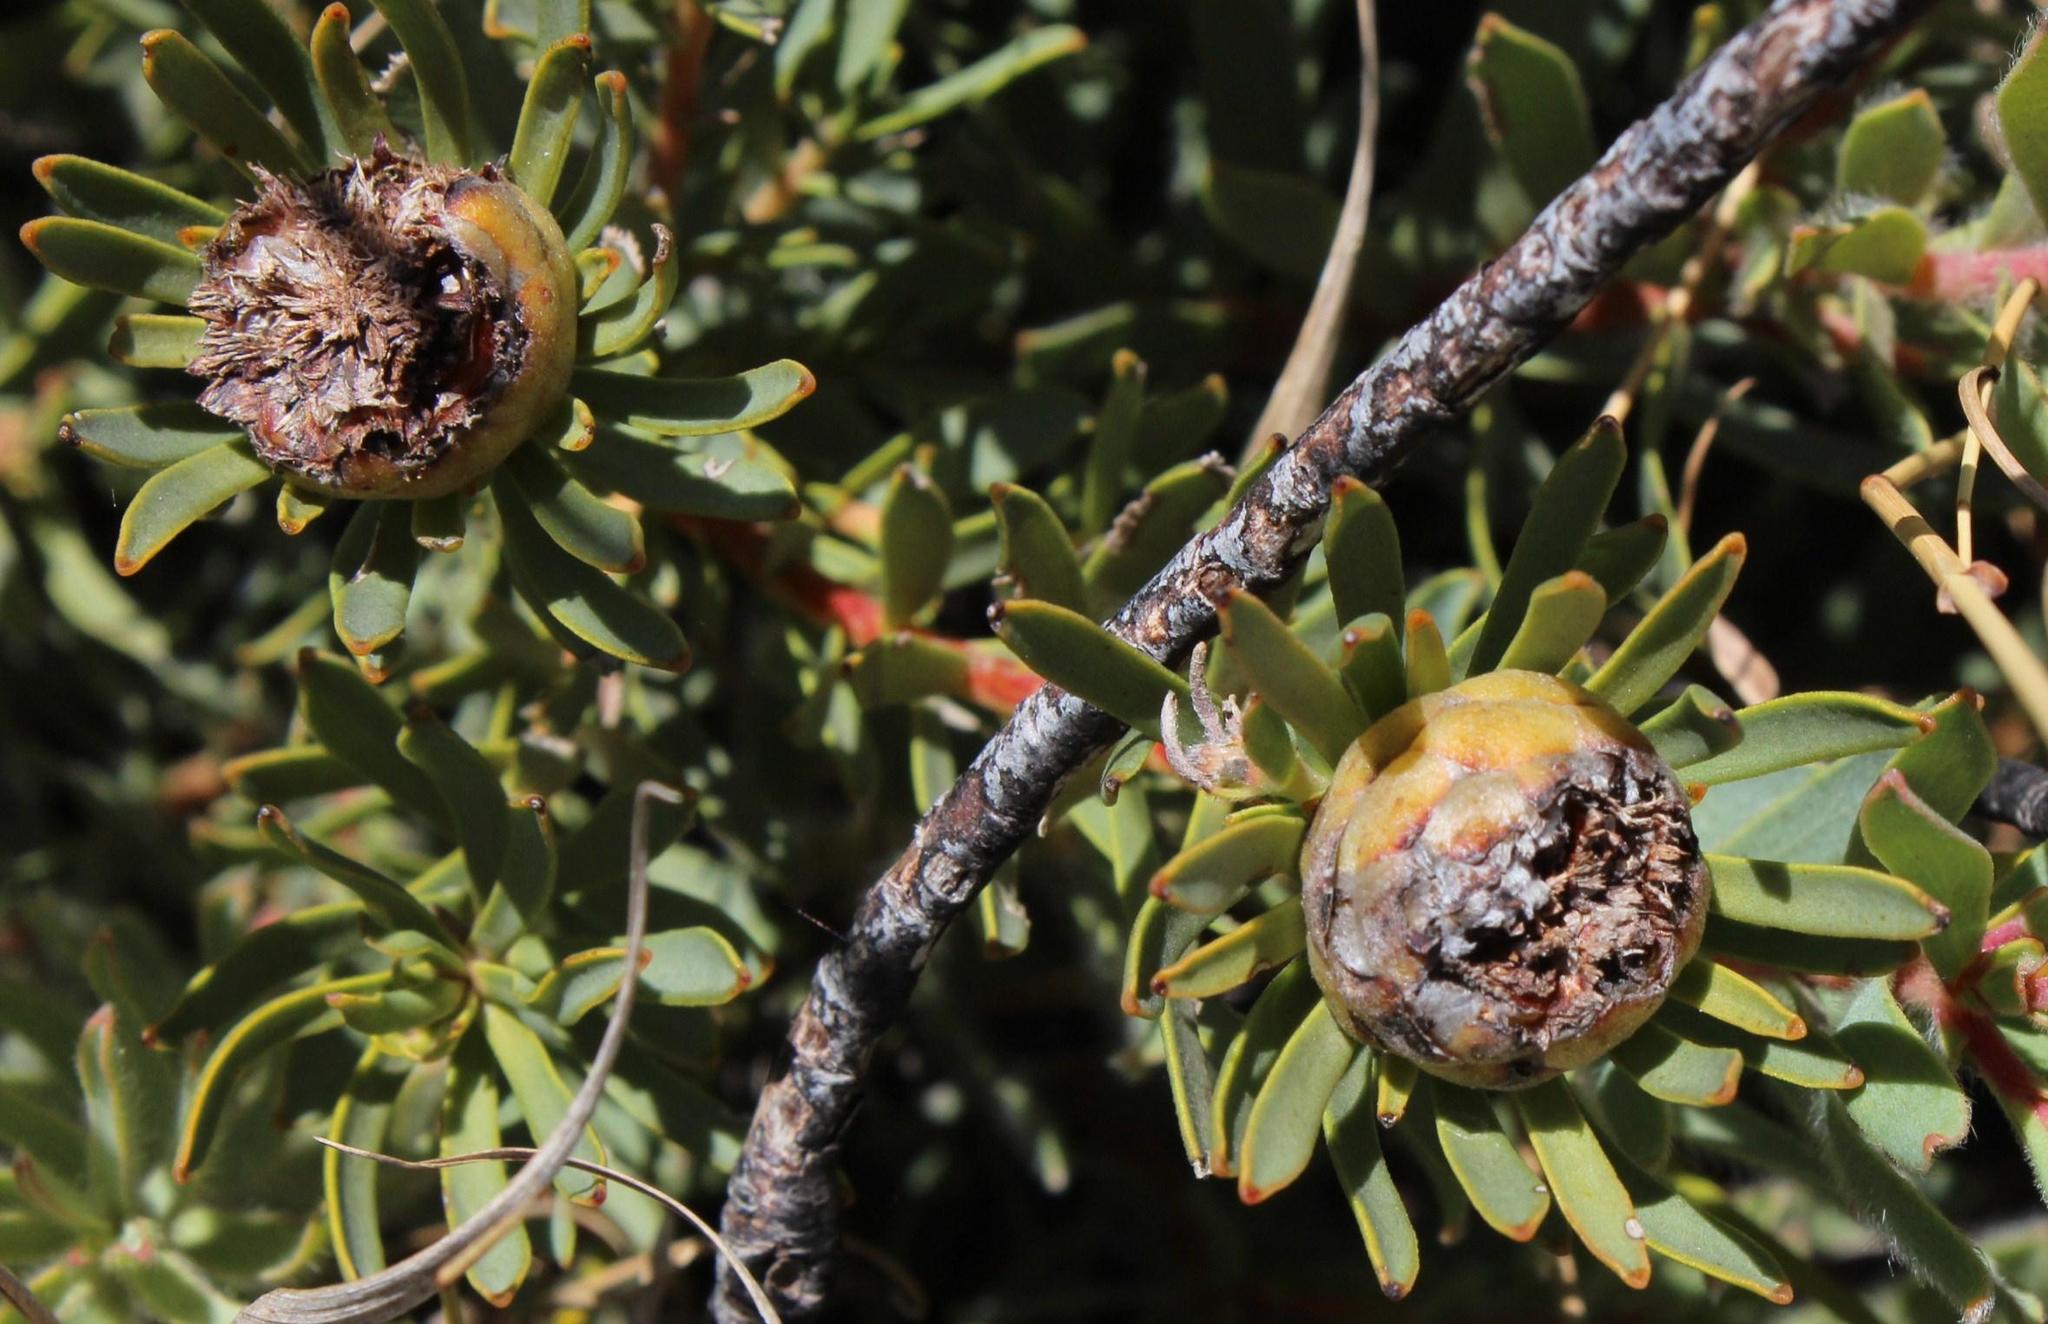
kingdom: Plantae
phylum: Tracheophyta
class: Magnoliopsida
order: Proteales
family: Proteaceae
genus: Leucadendron
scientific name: Leucadendron lanigerum
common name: Shale conebush
